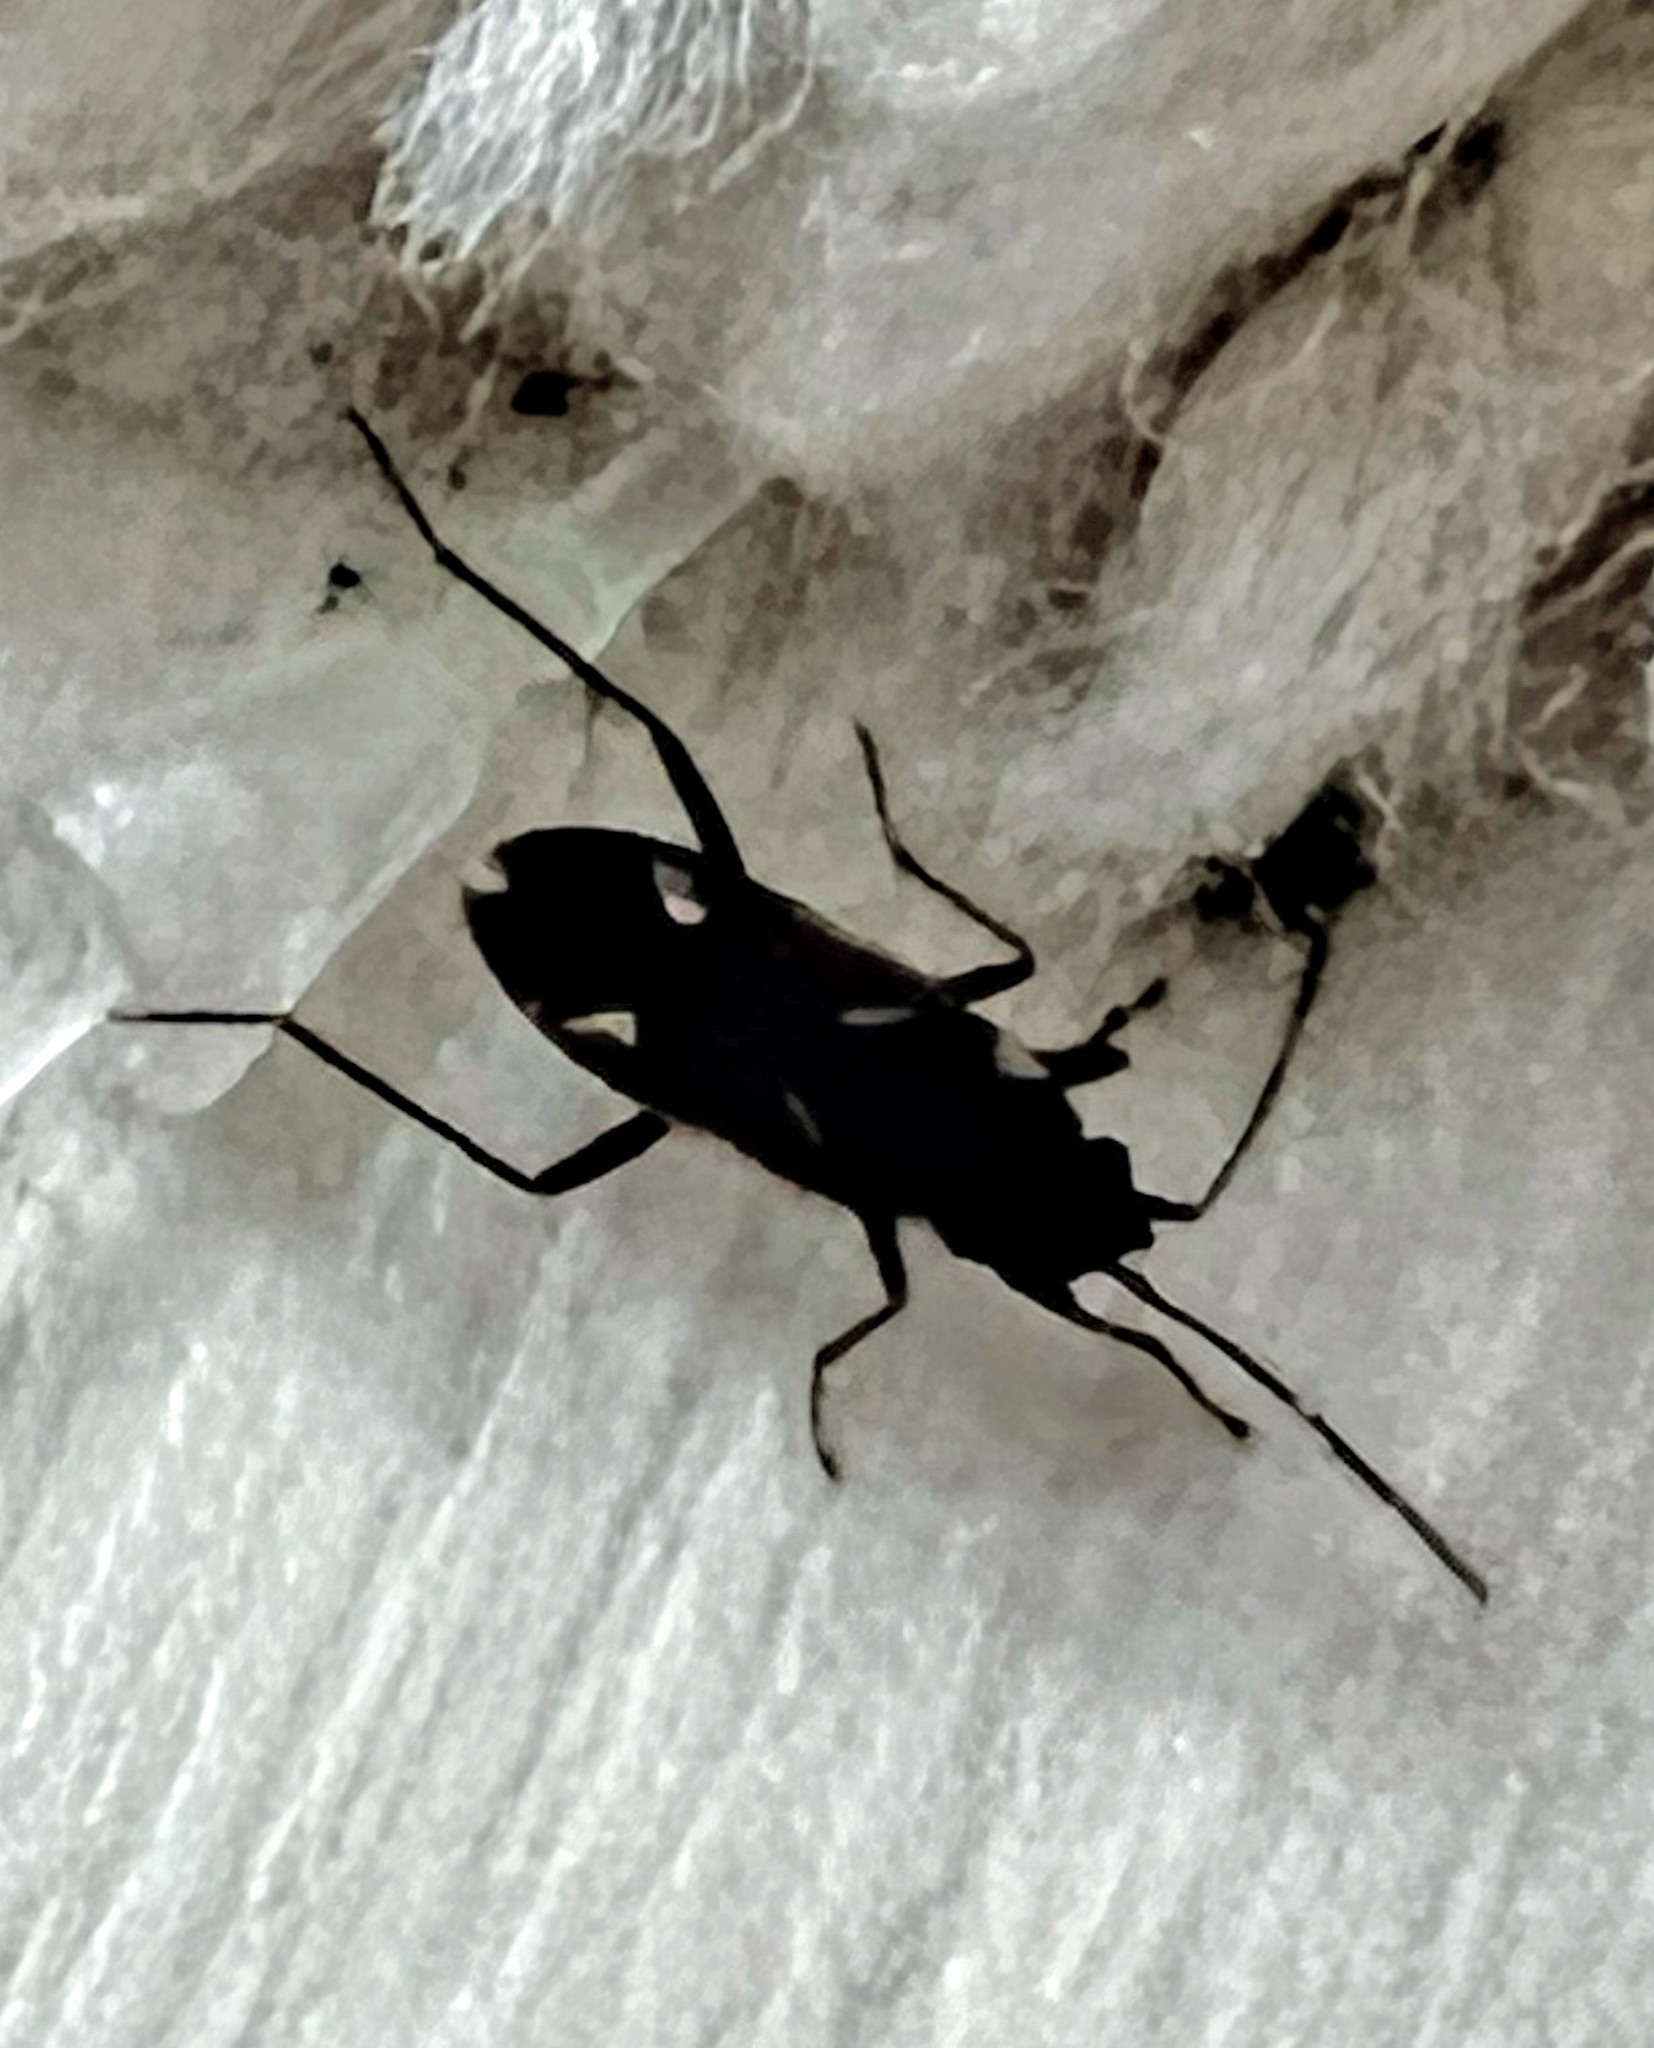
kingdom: Animalia
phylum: Arthropoda
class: Insecta
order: Hemiptera
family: Rhyparochromidae
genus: Rhyparochromus
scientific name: Rhyparochromus vulgaris
